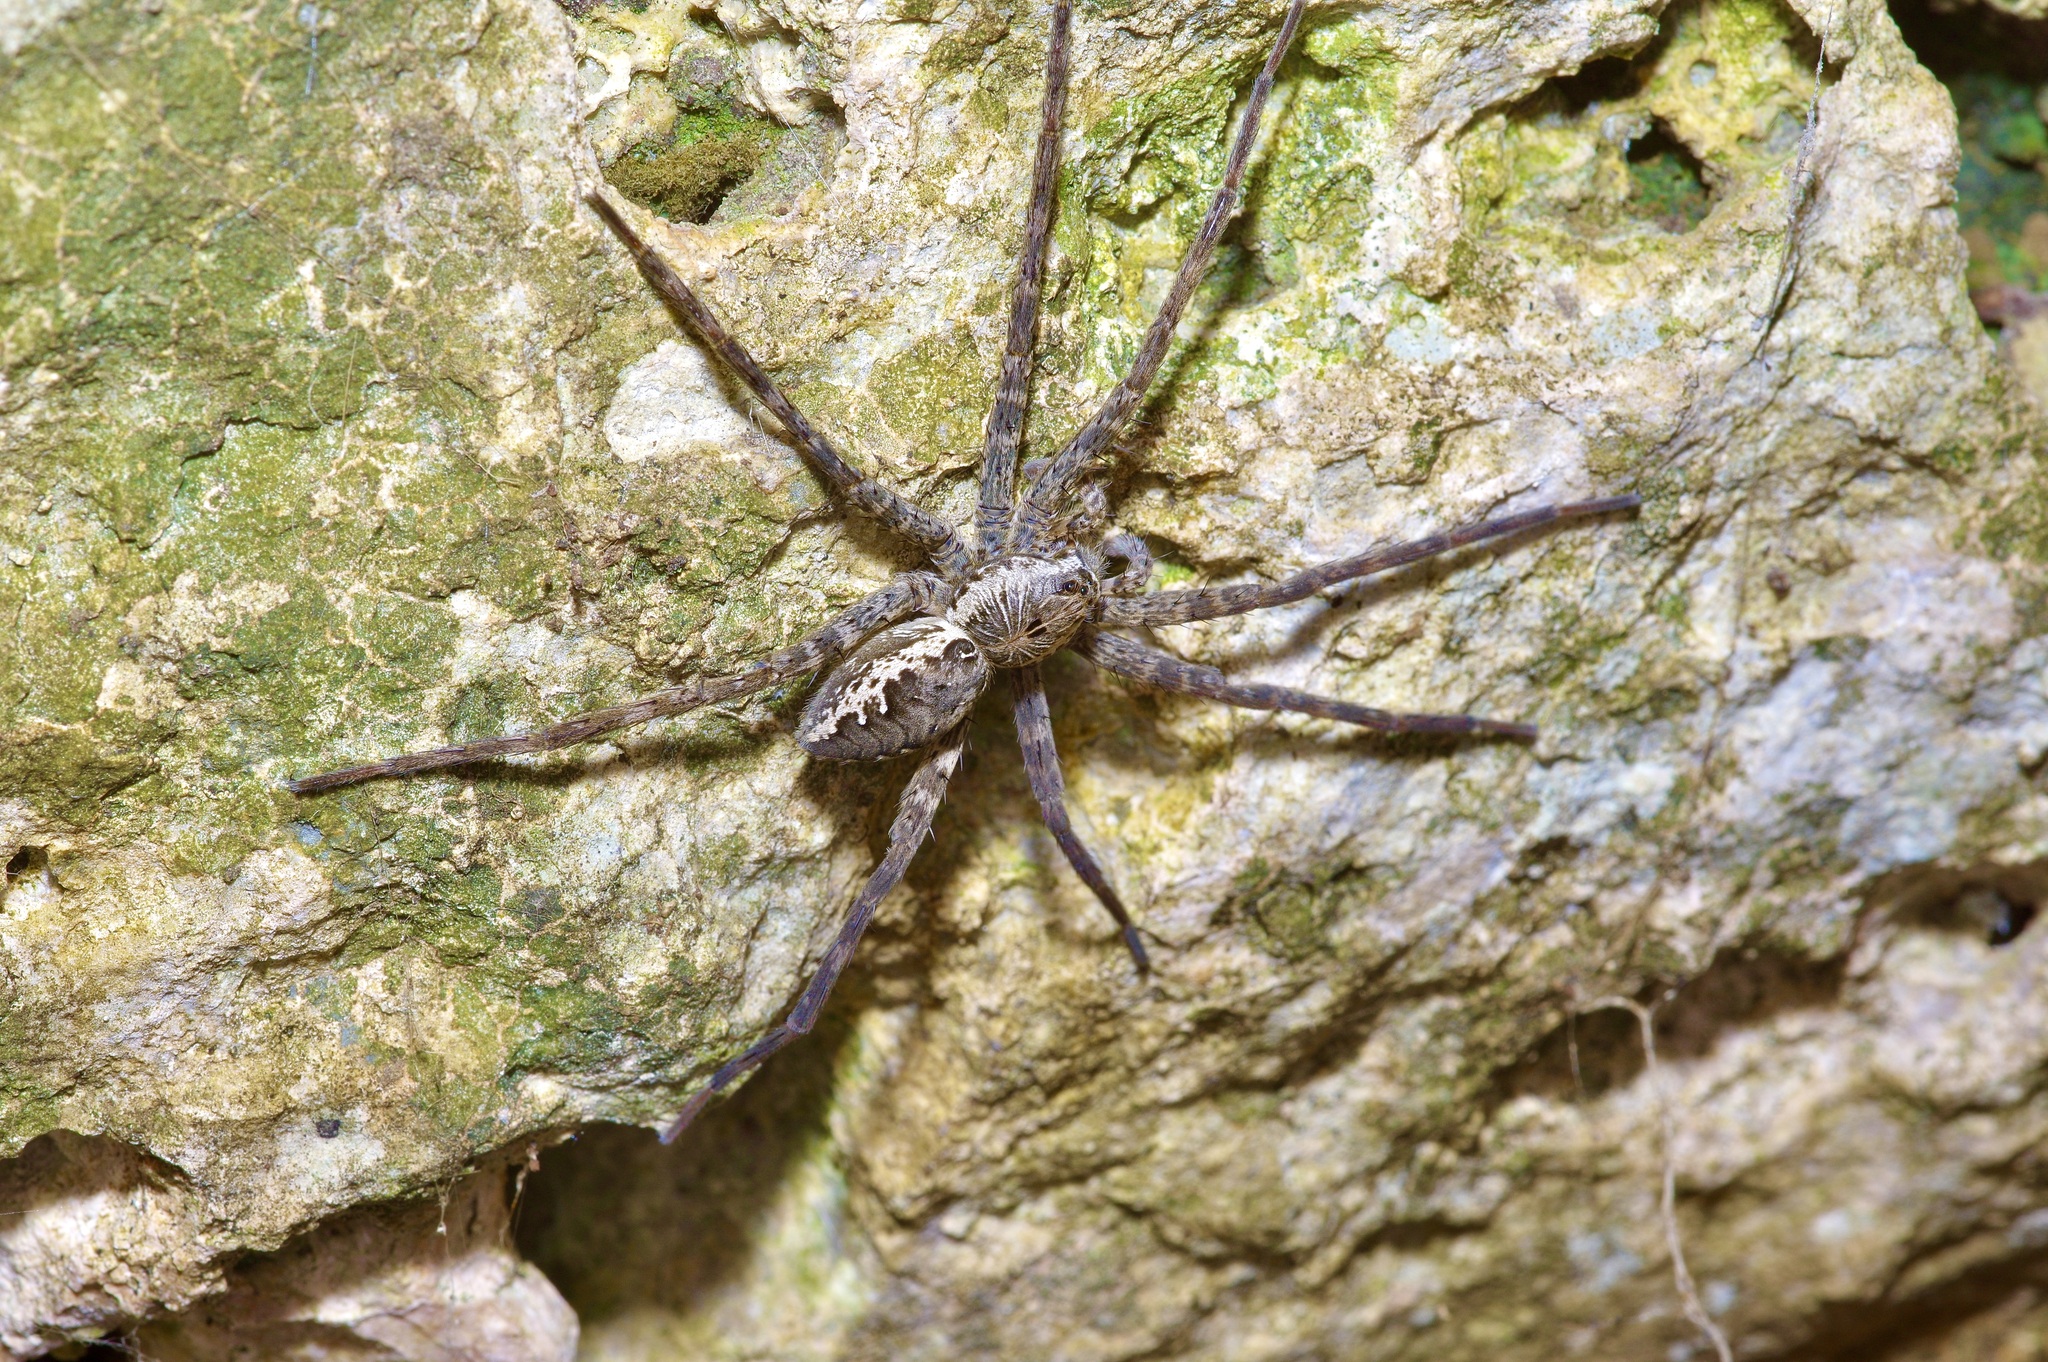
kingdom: Animalia
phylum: Arthropoda
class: Arachnida
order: Araneae
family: Pisauridae
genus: Dolomedes
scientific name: Dolomedes vittatus
